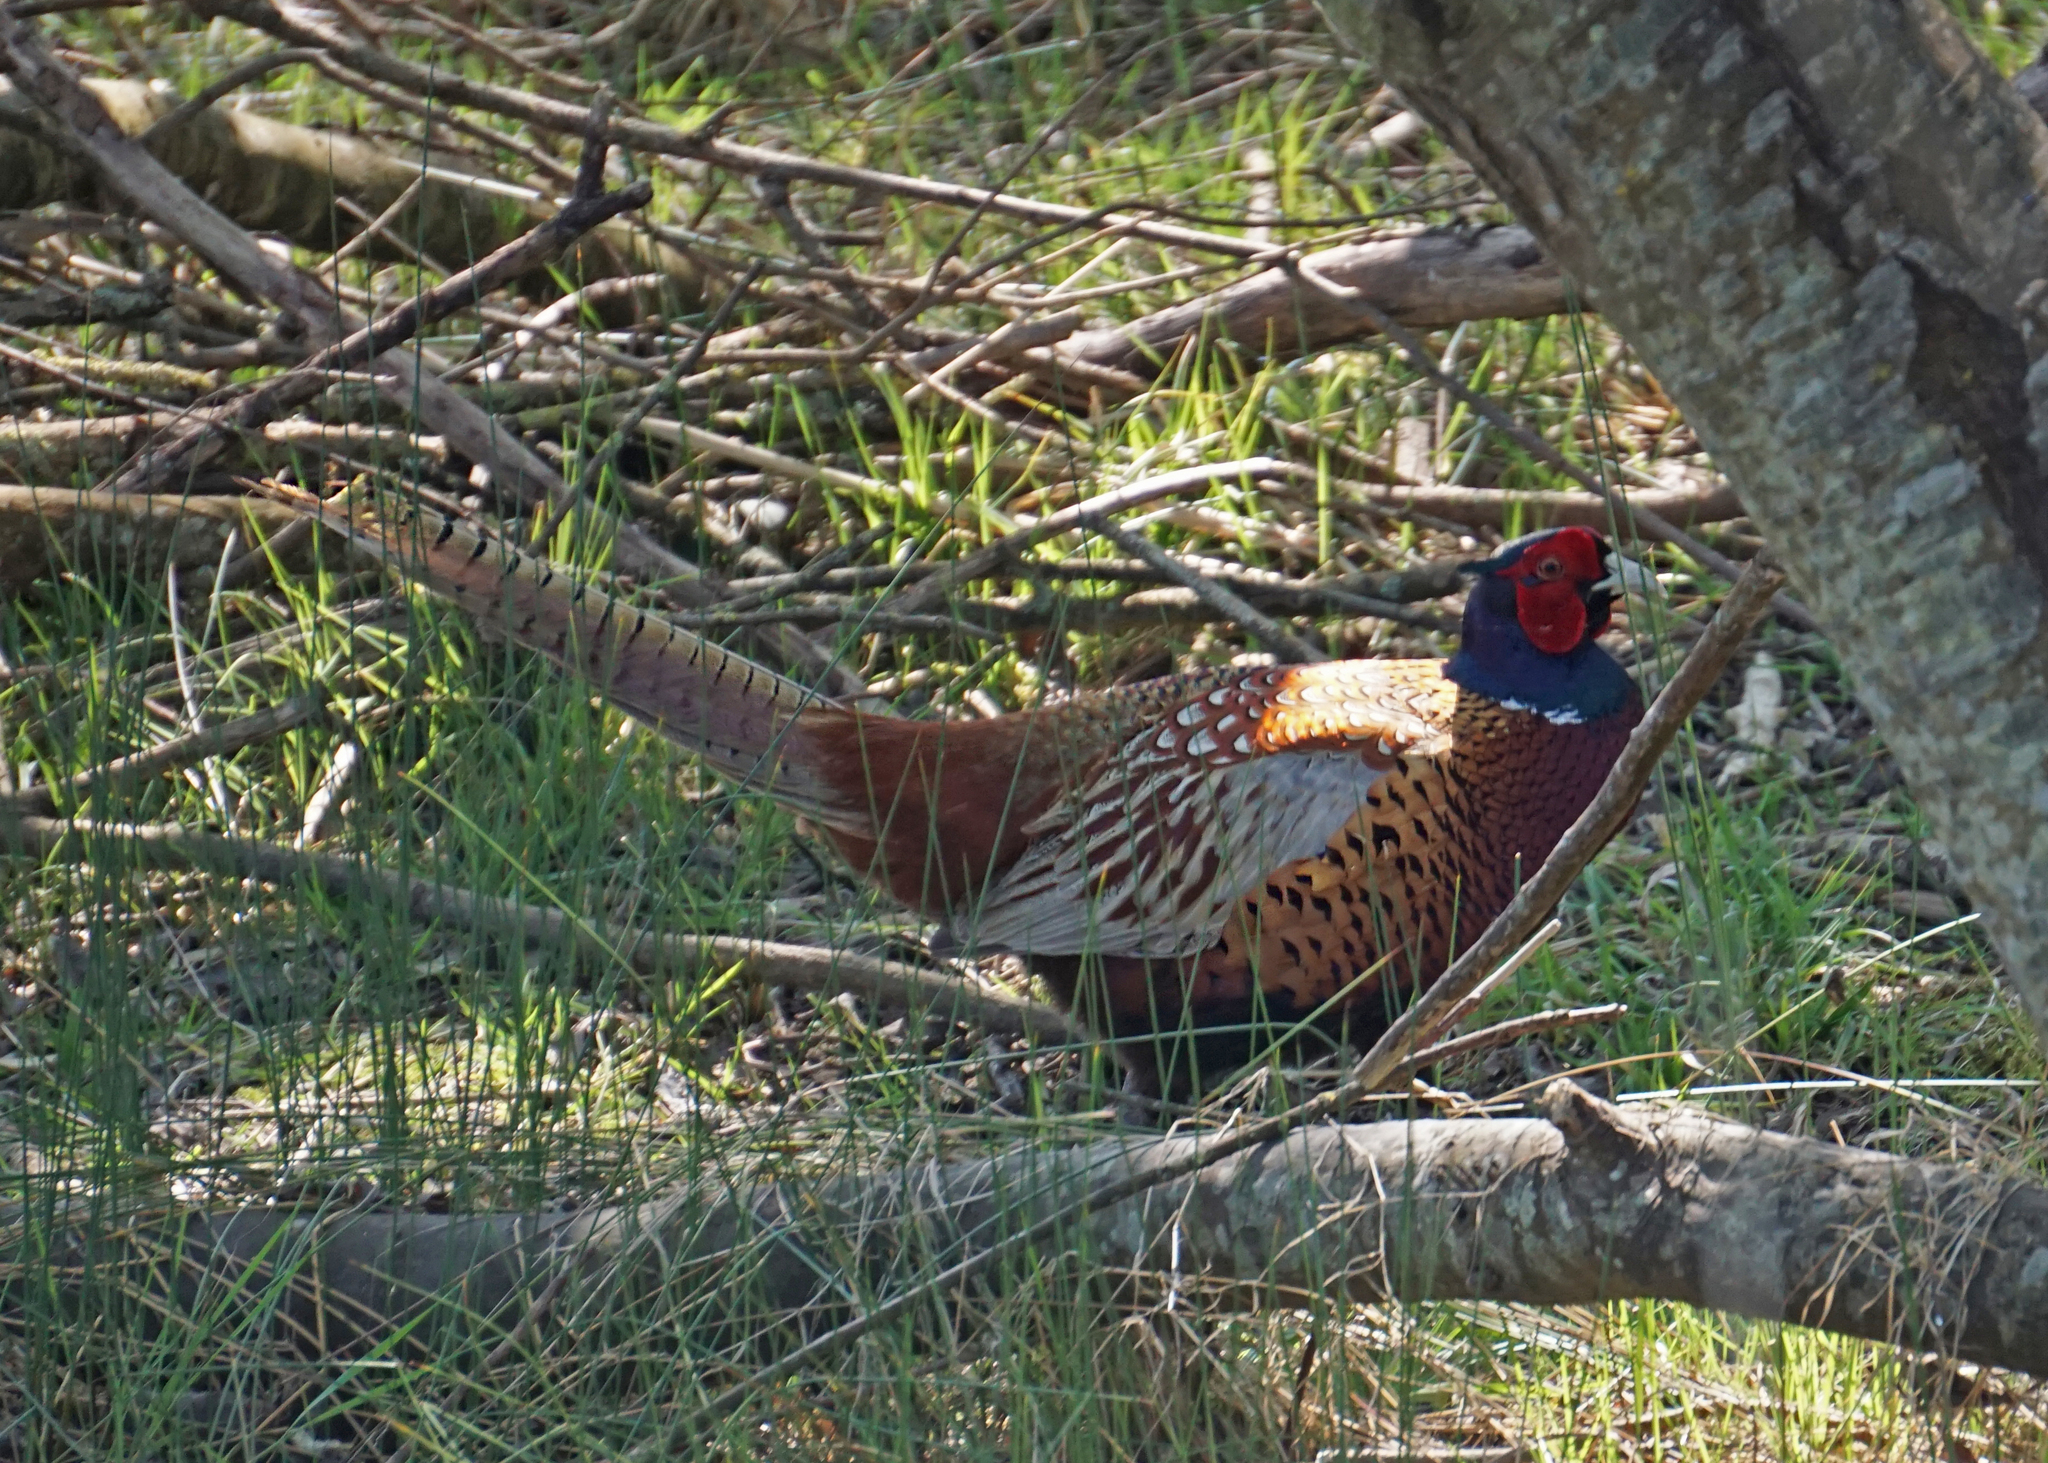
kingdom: Animalia
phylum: Chordata
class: Aves
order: Galliformes
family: Phasianidae
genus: Phasianus
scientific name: Phasianus colchicus
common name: Common pheasant
